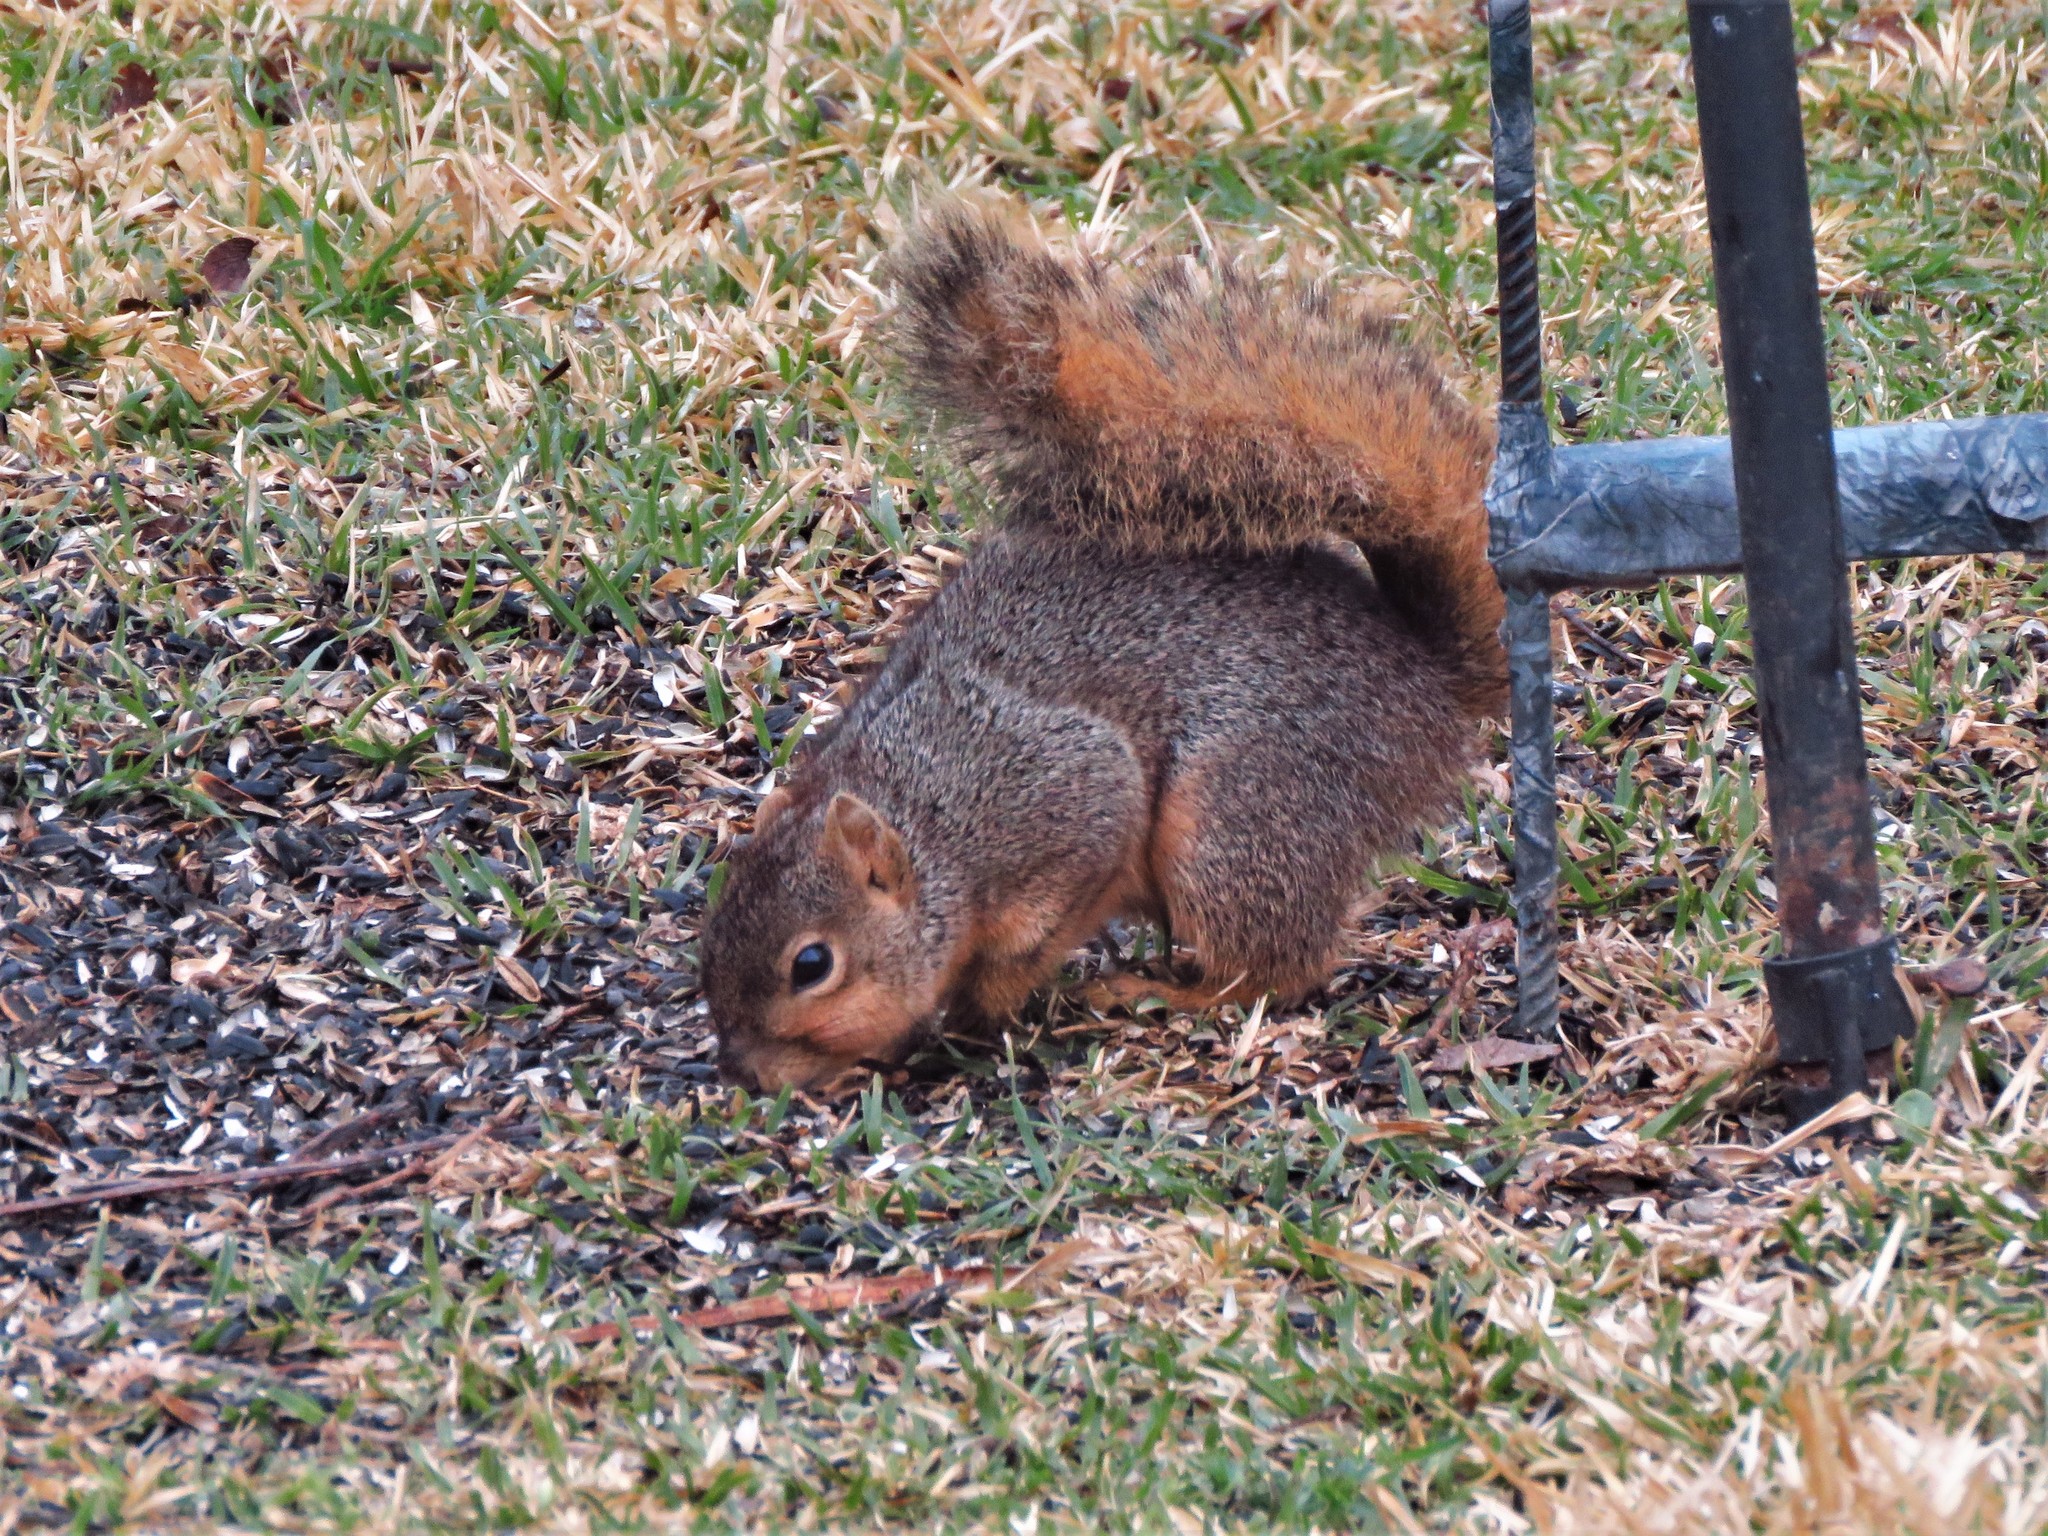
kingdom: Animalia
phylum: Chordata
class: Mammalia
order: Rodentia
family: Sciuridae
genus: Sciurus
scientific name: Sciurus niger
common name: Fox squirrel
